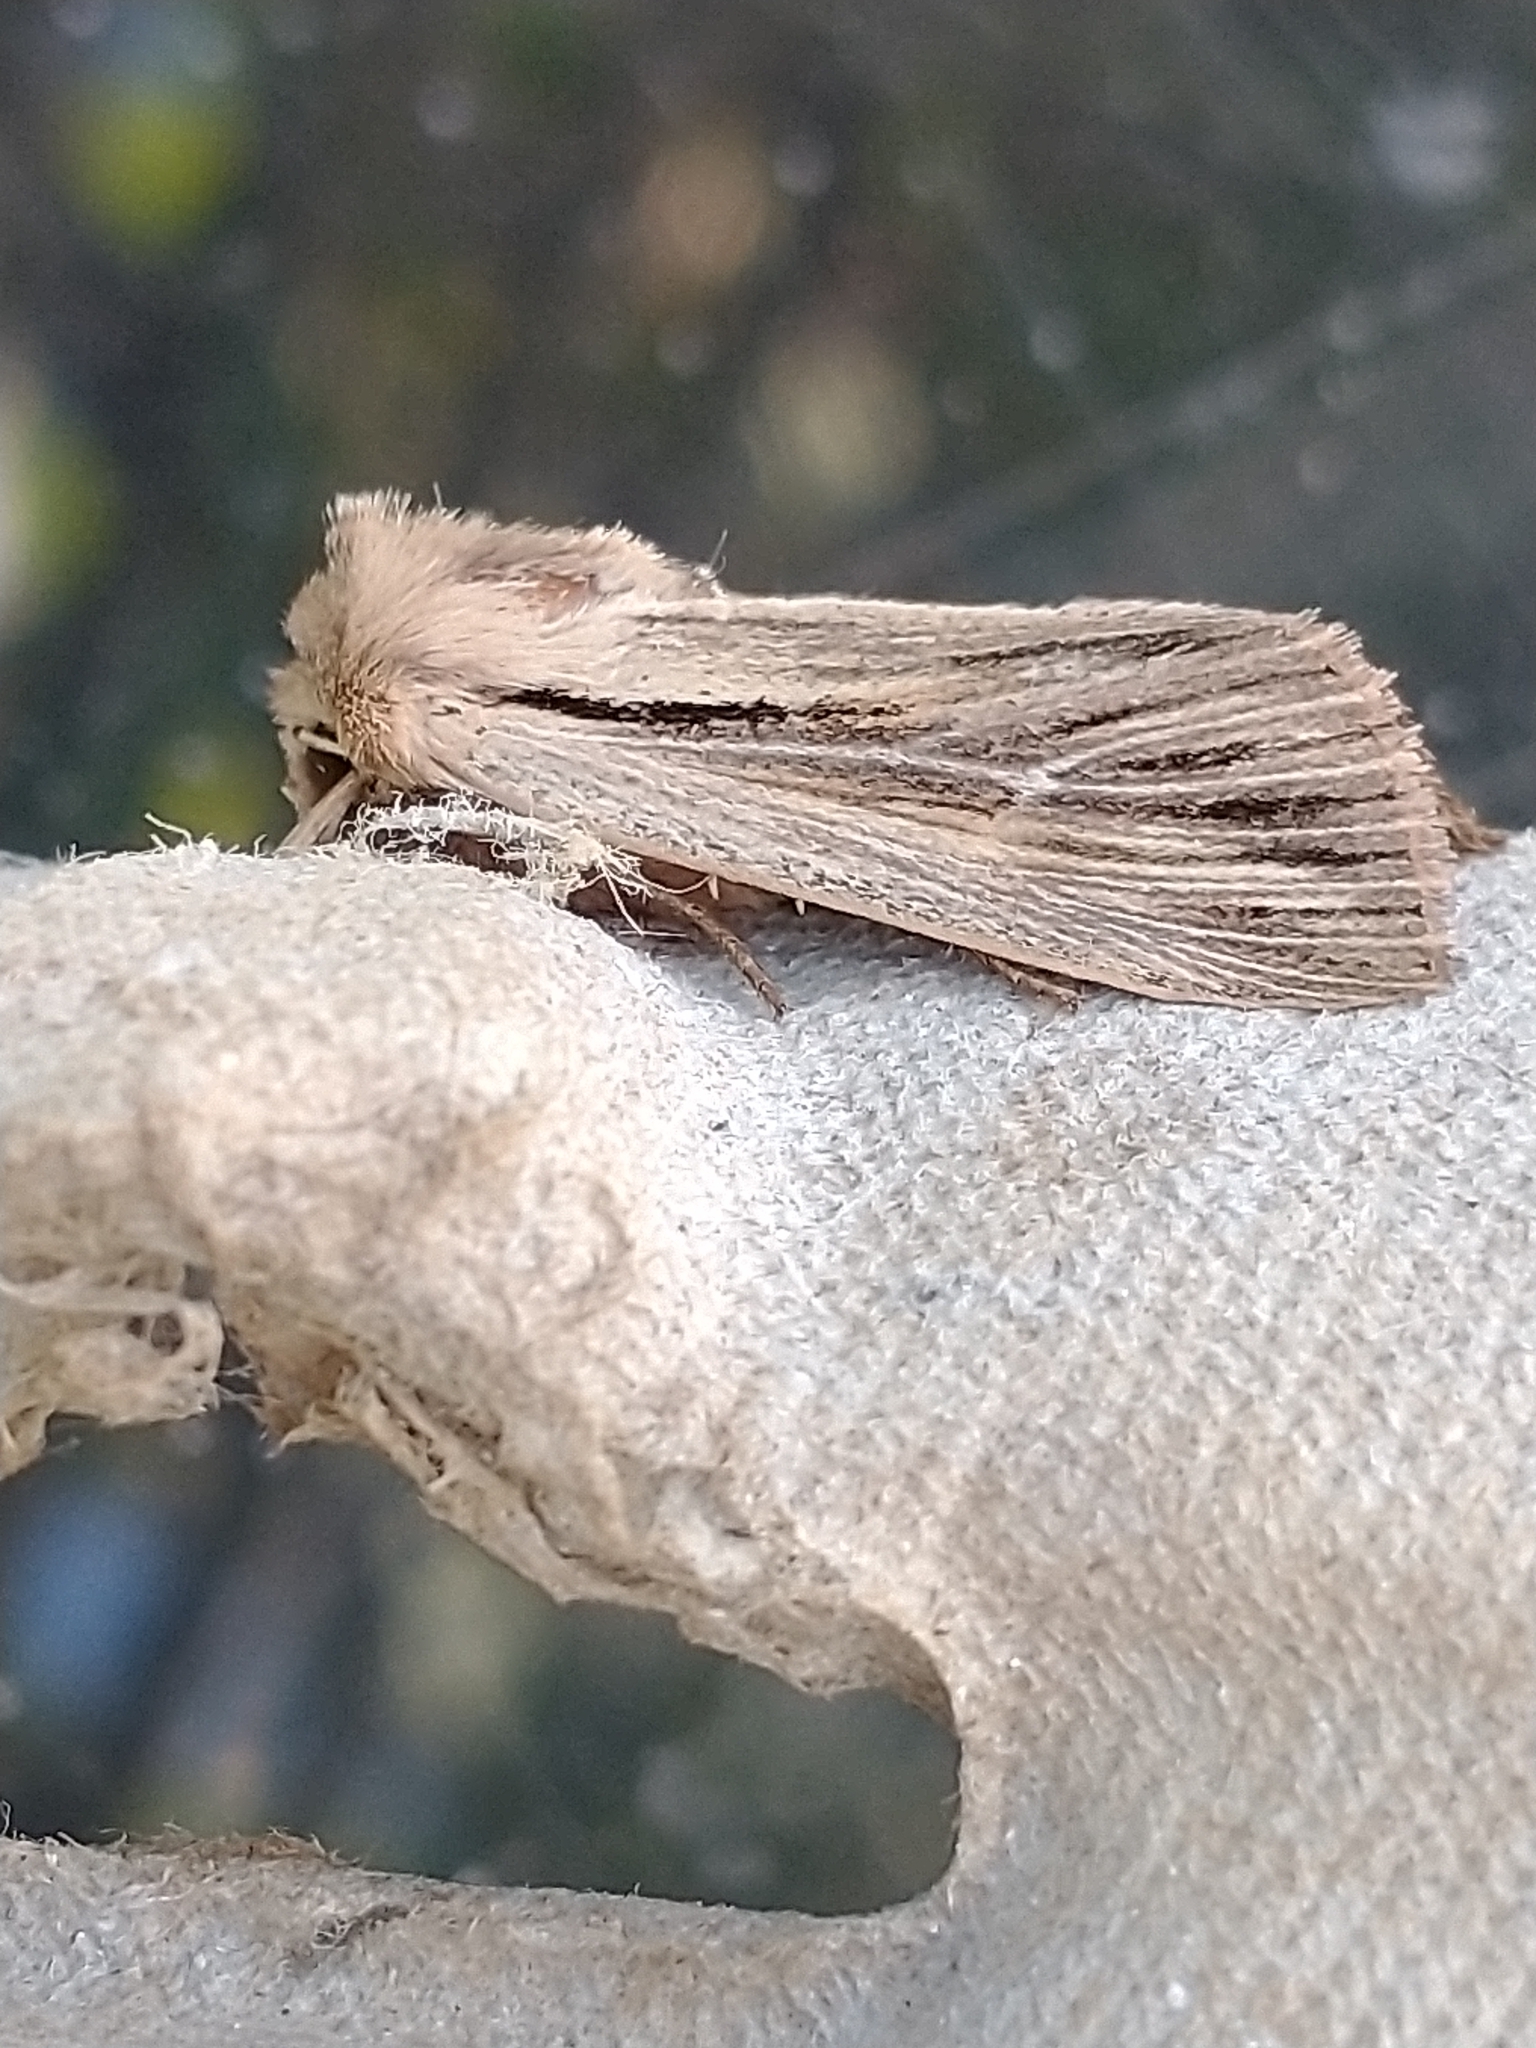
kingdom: Animalia
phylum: Arthropoda
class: Insecta
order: Lepidoptera
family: Noctuidae
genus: Leucania
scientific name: Leucania comma
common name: Shoulder-striped wainscot
